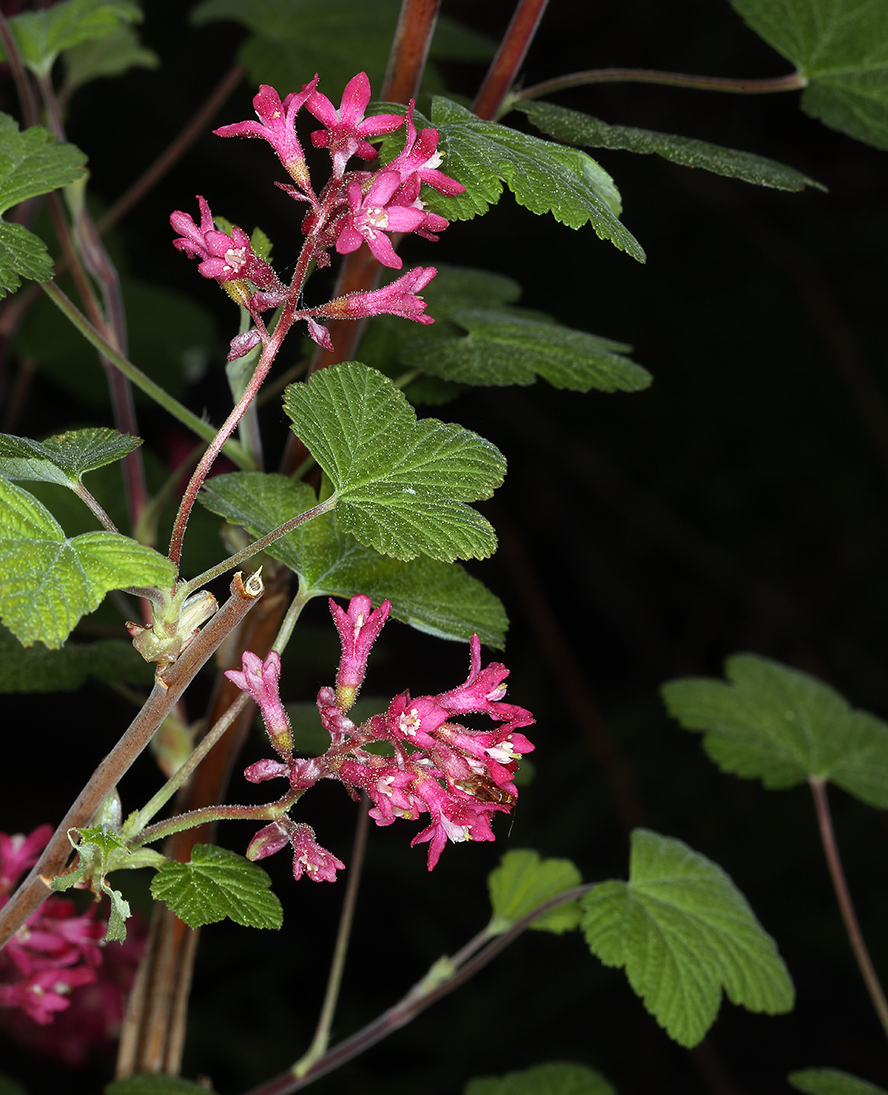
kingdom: Plantae
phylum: Tracheophyta
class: Magnoliopsida
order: Saxifragales
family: Grossulariaceae
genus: Ribes
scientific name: Ribes sanguineum
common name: Flowering currant
